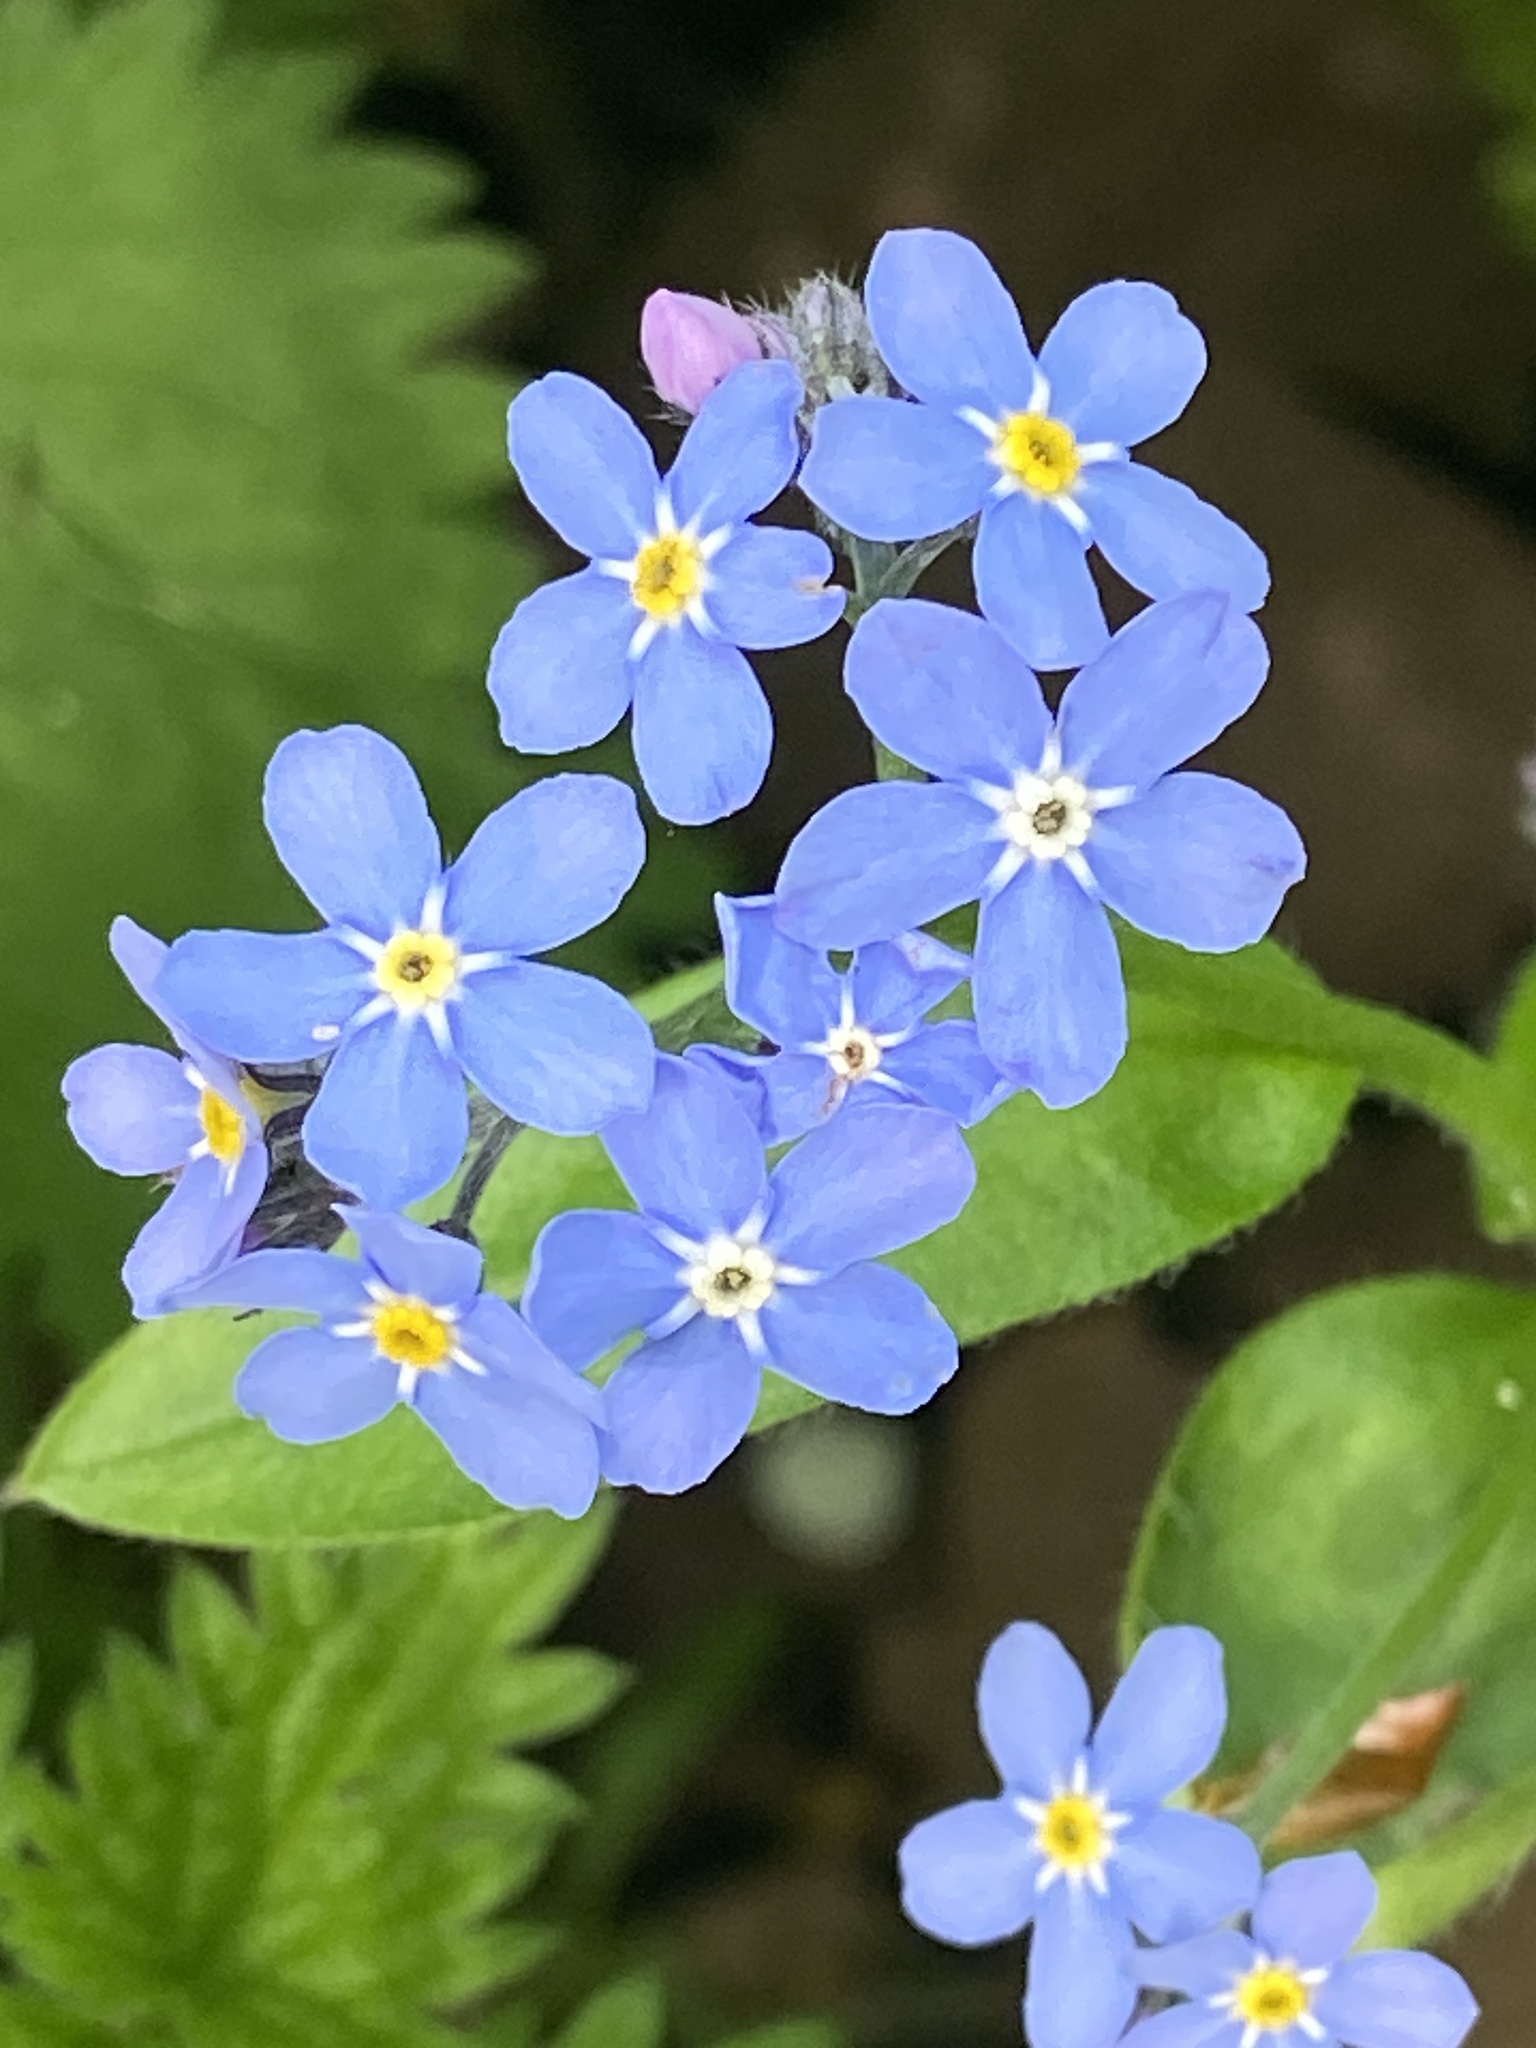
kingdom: Plantae
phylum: Tracheophyta
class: Magnoliopsida
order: Boraginales
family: Boraginaceae
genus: Myosotis
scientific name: Myosotis sylvatica
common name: Wood forget-me-not
